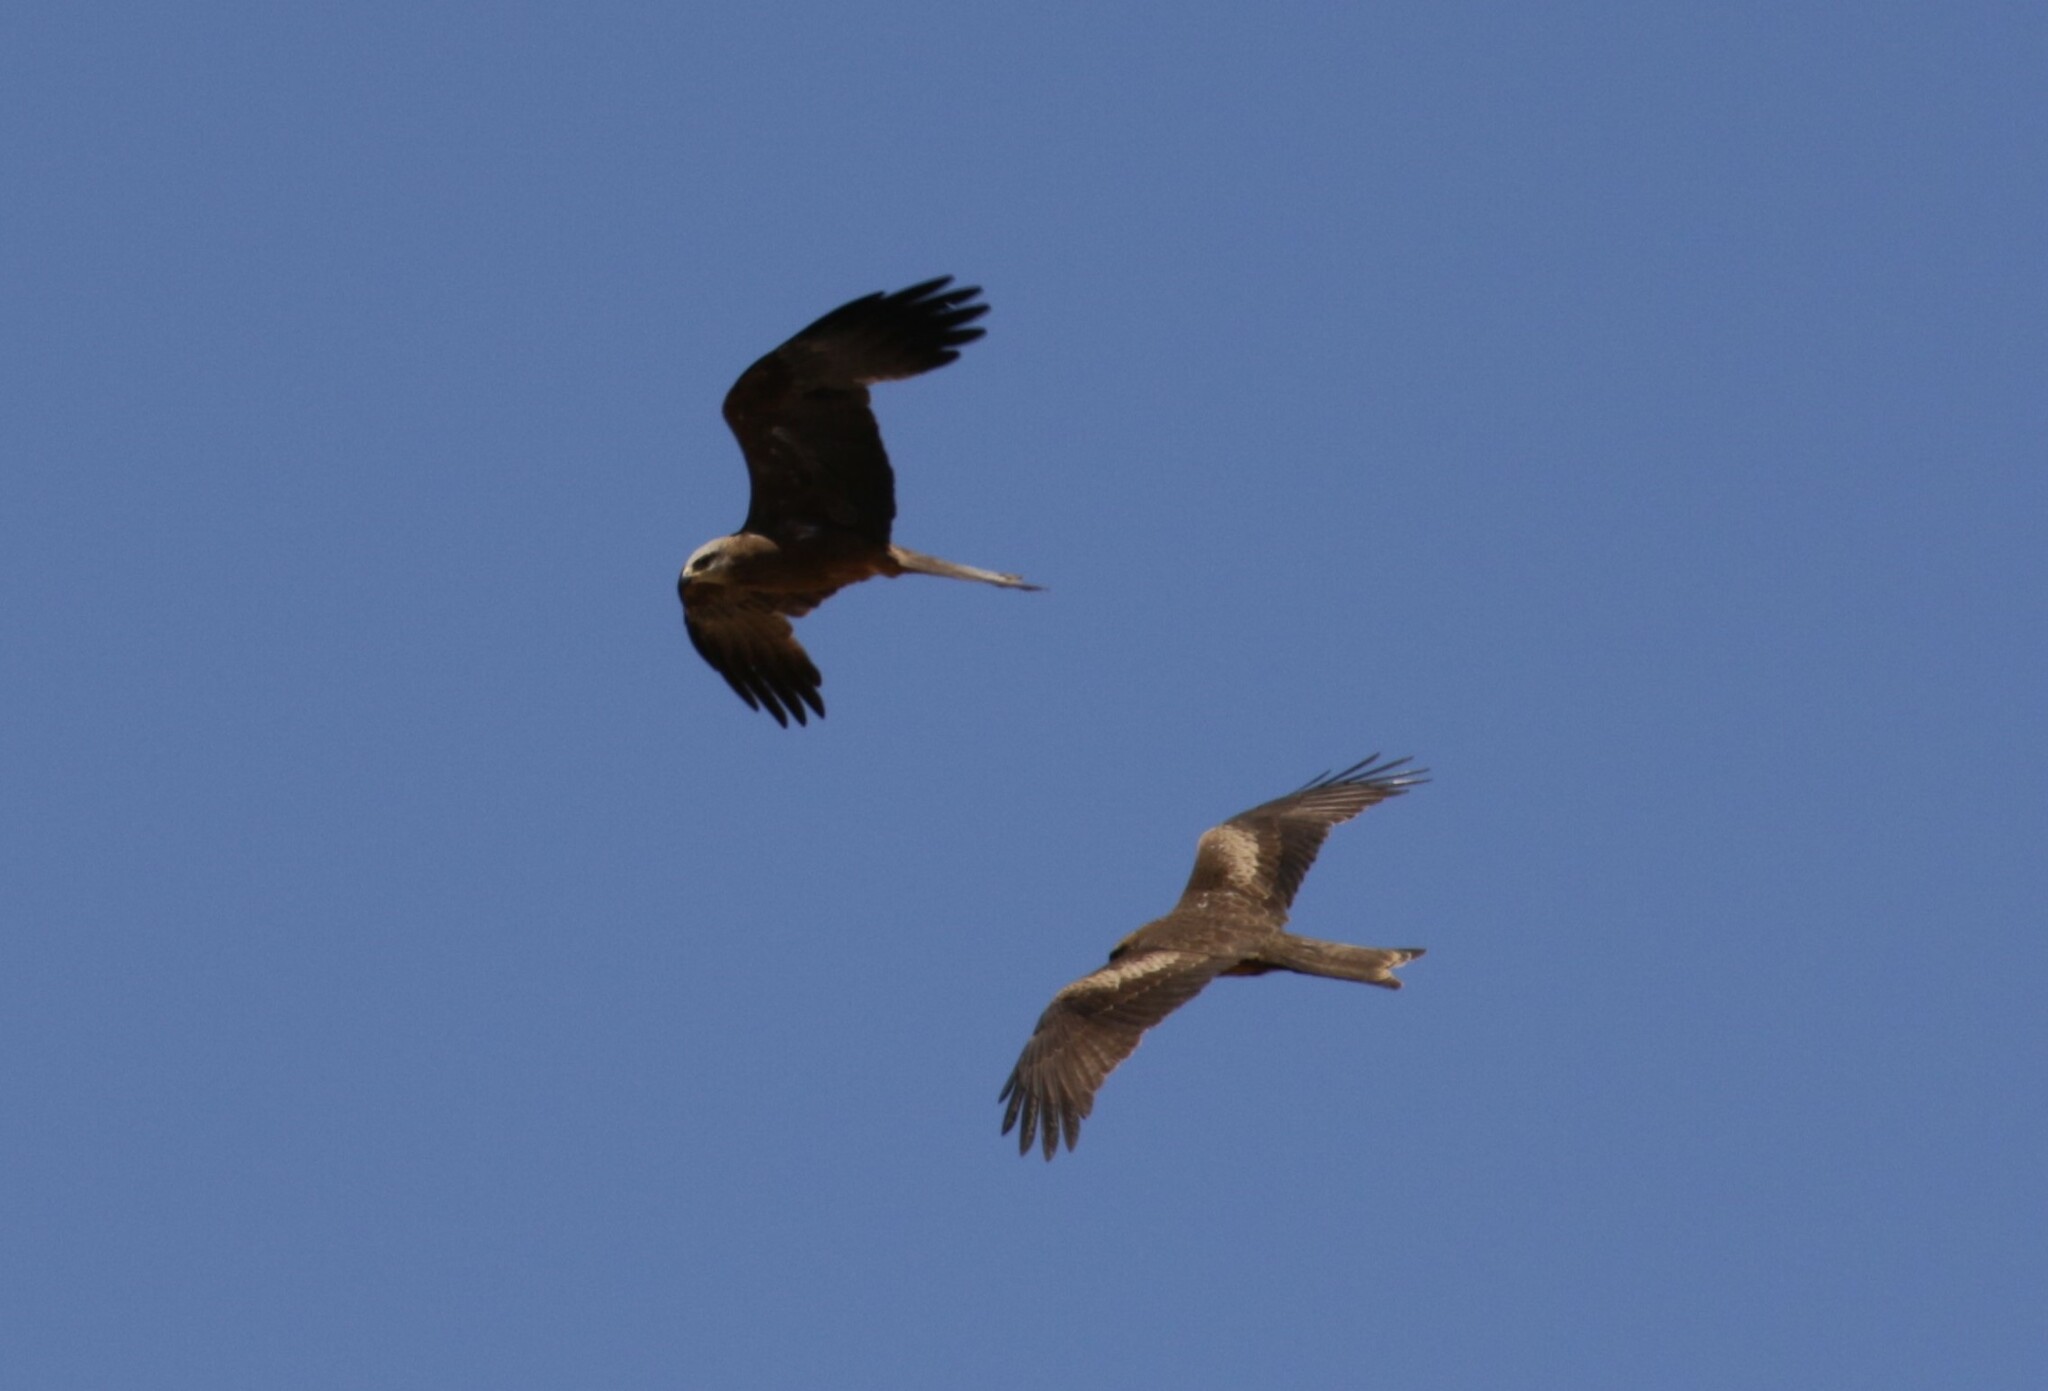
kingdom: Animalia
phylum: Chordata
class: Aves
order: Accipitriformes
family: Accipitridae
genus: Milvus
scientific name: Milvus migrans
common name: Black kite
